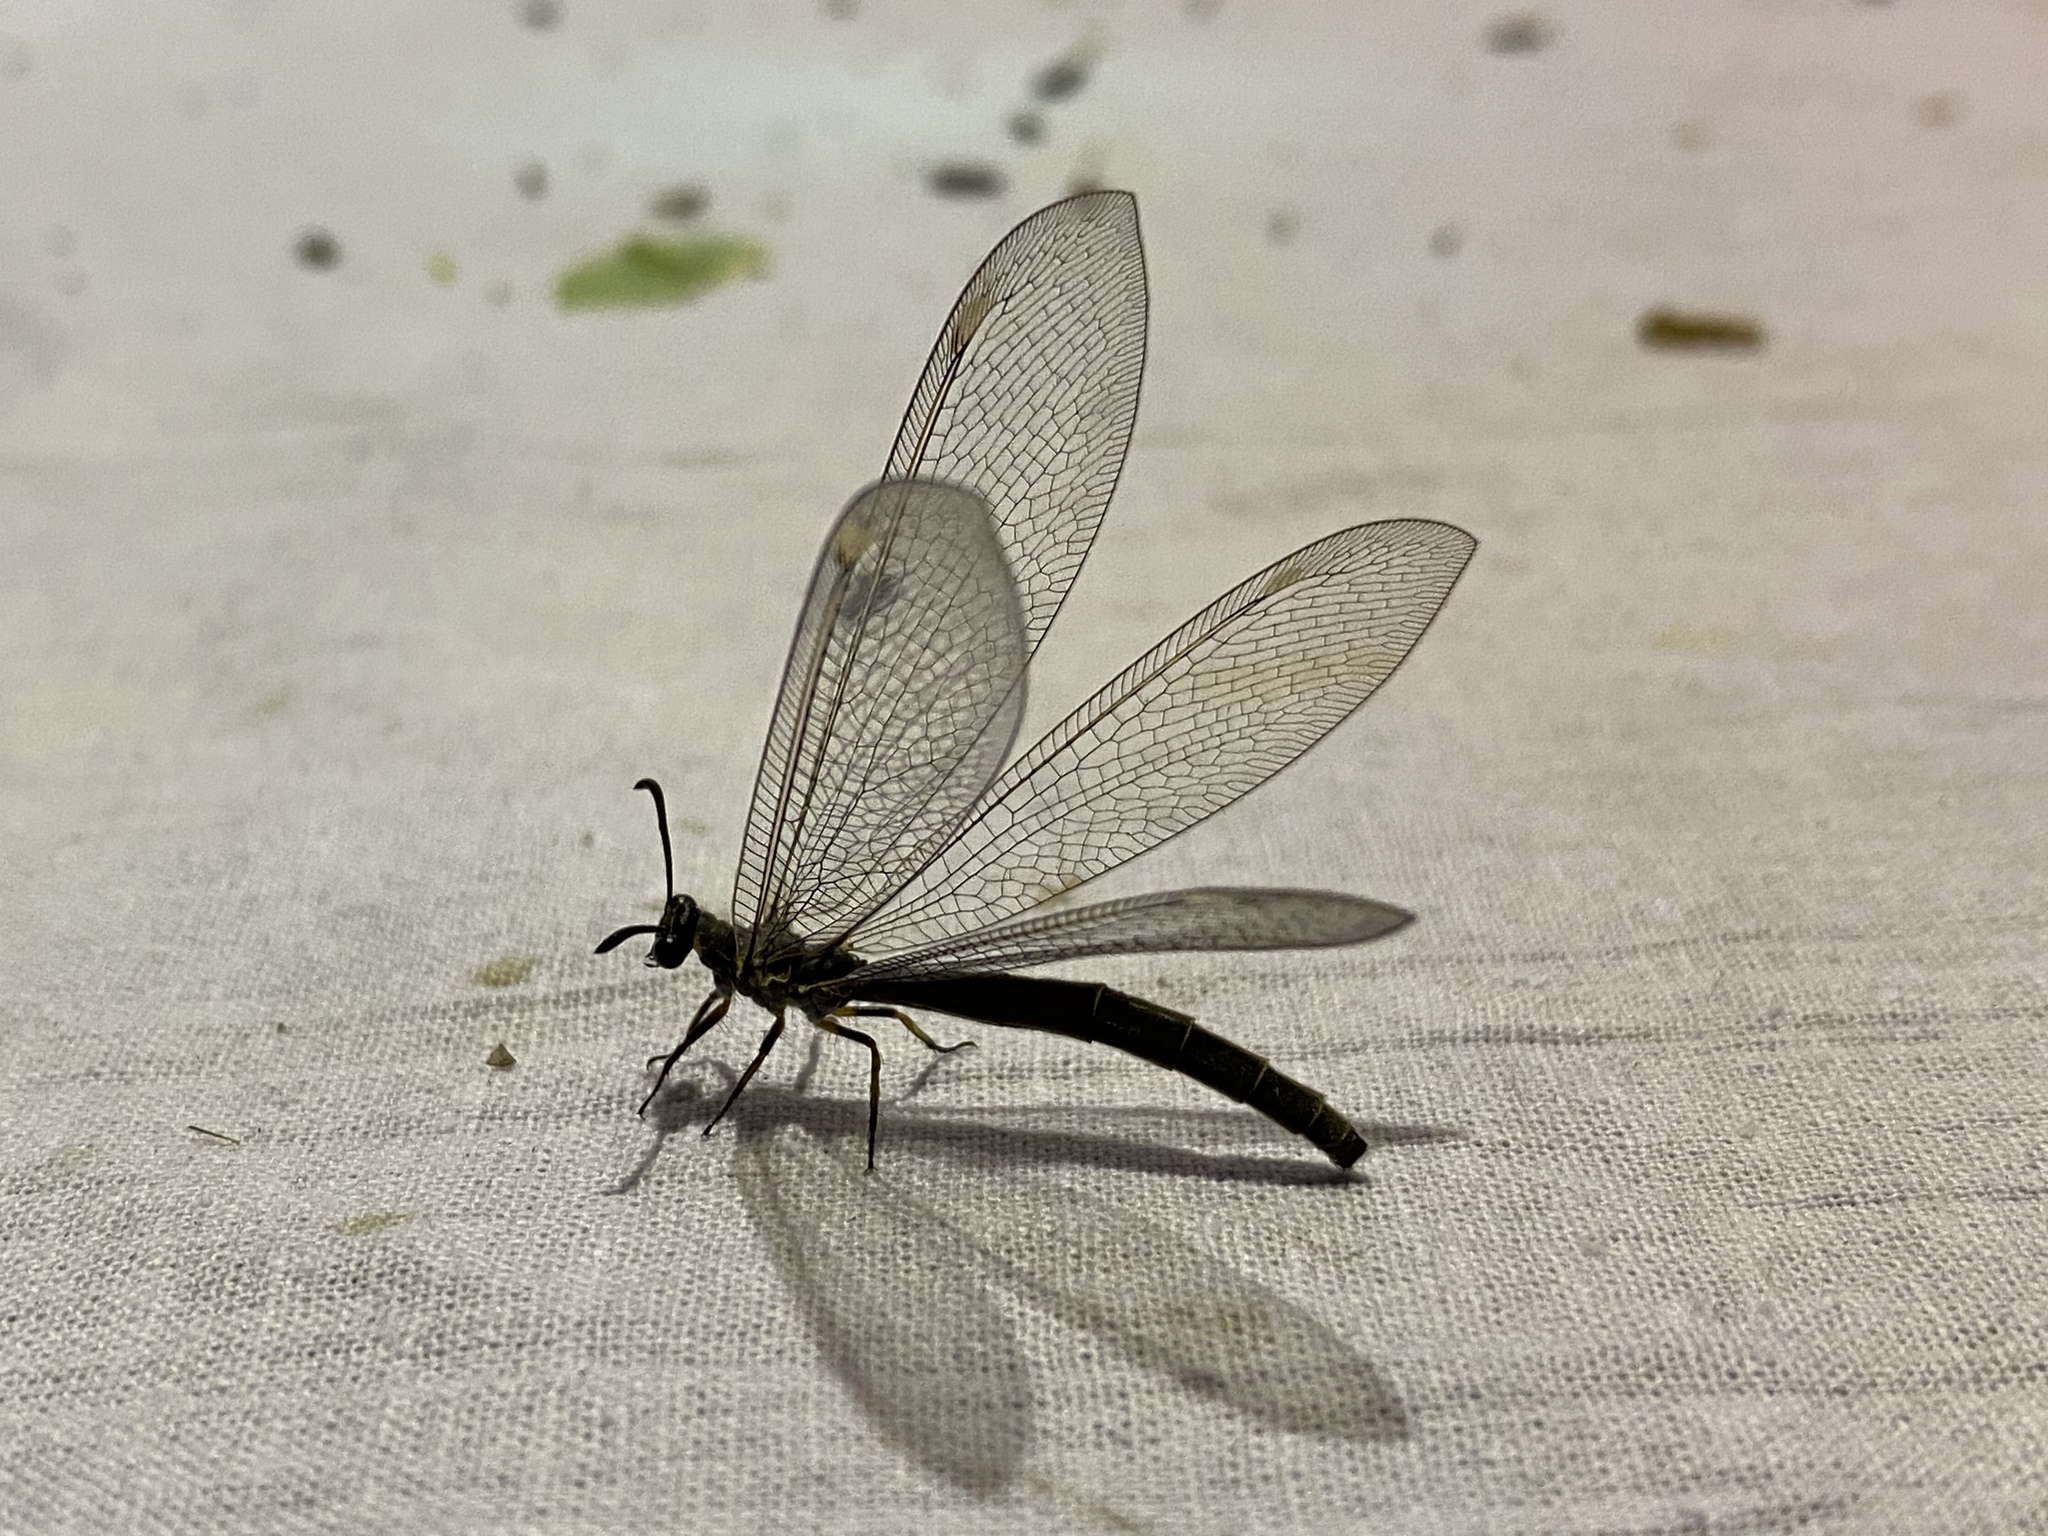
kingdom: Animalia
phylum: Arthropoda
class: Insecta
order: Neuroptera
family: Myrmeleontidae
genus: Myrmeleon
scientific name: Myrmeleon bore
